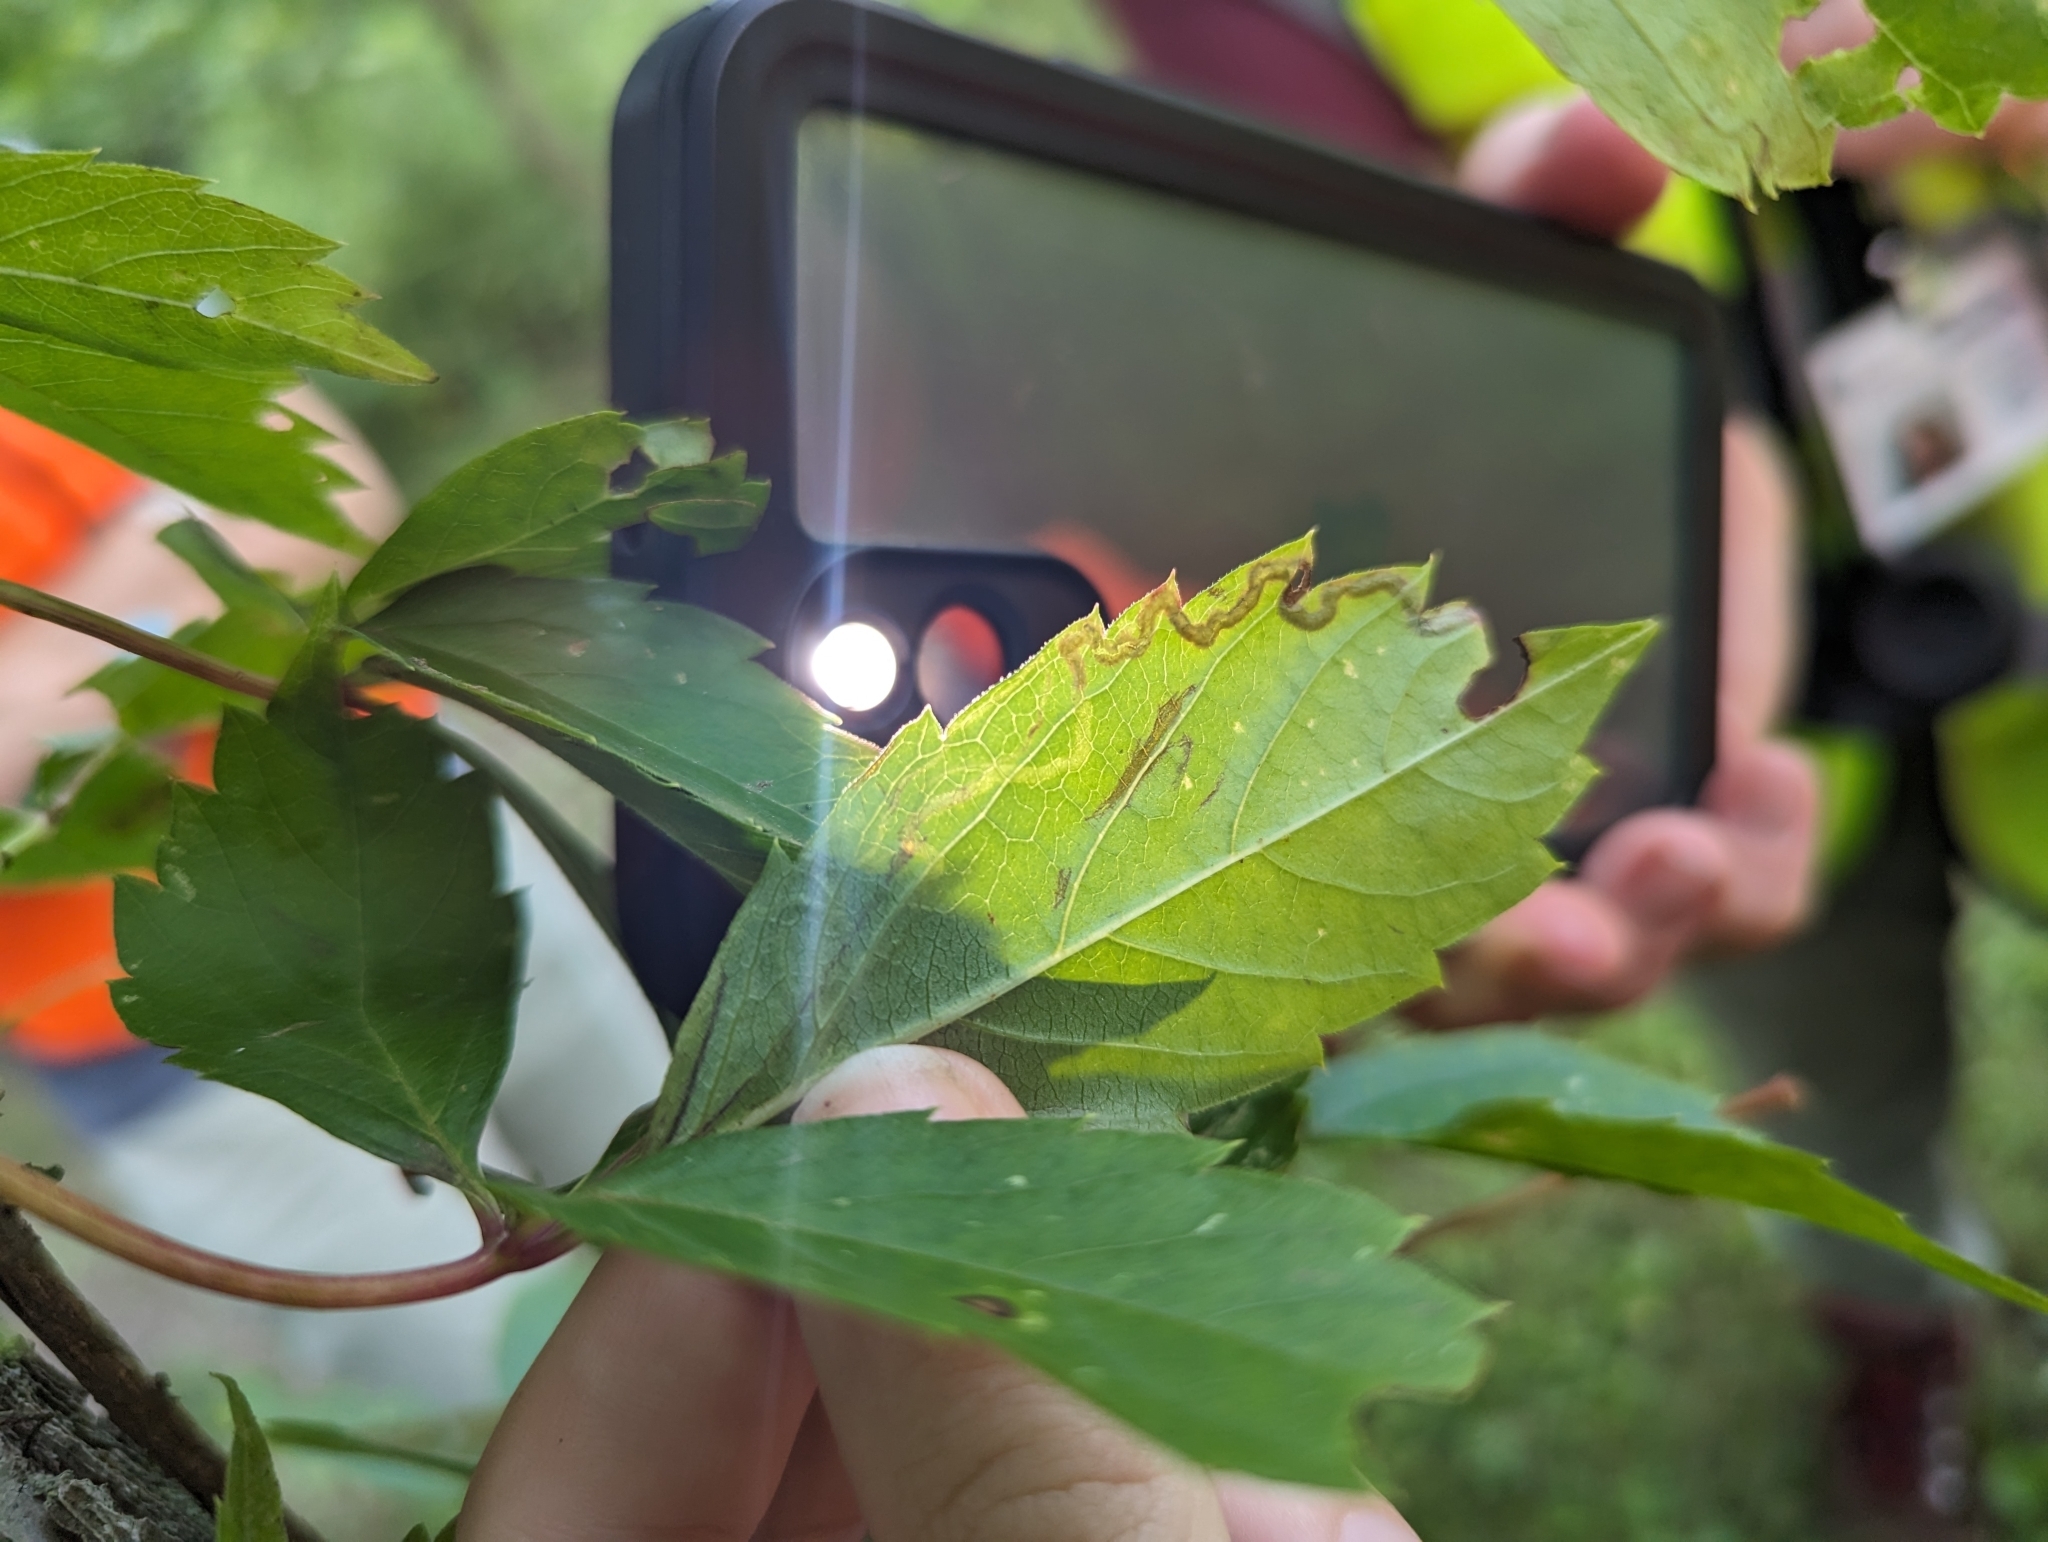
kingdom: Animalia
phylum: Arthropoda
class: Insecta
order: Lepidoptera
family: Gracillariidae
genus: Phyllocnistis
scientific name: Phyllocnistis vitifoliella
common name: Grape leaf-miner moth
